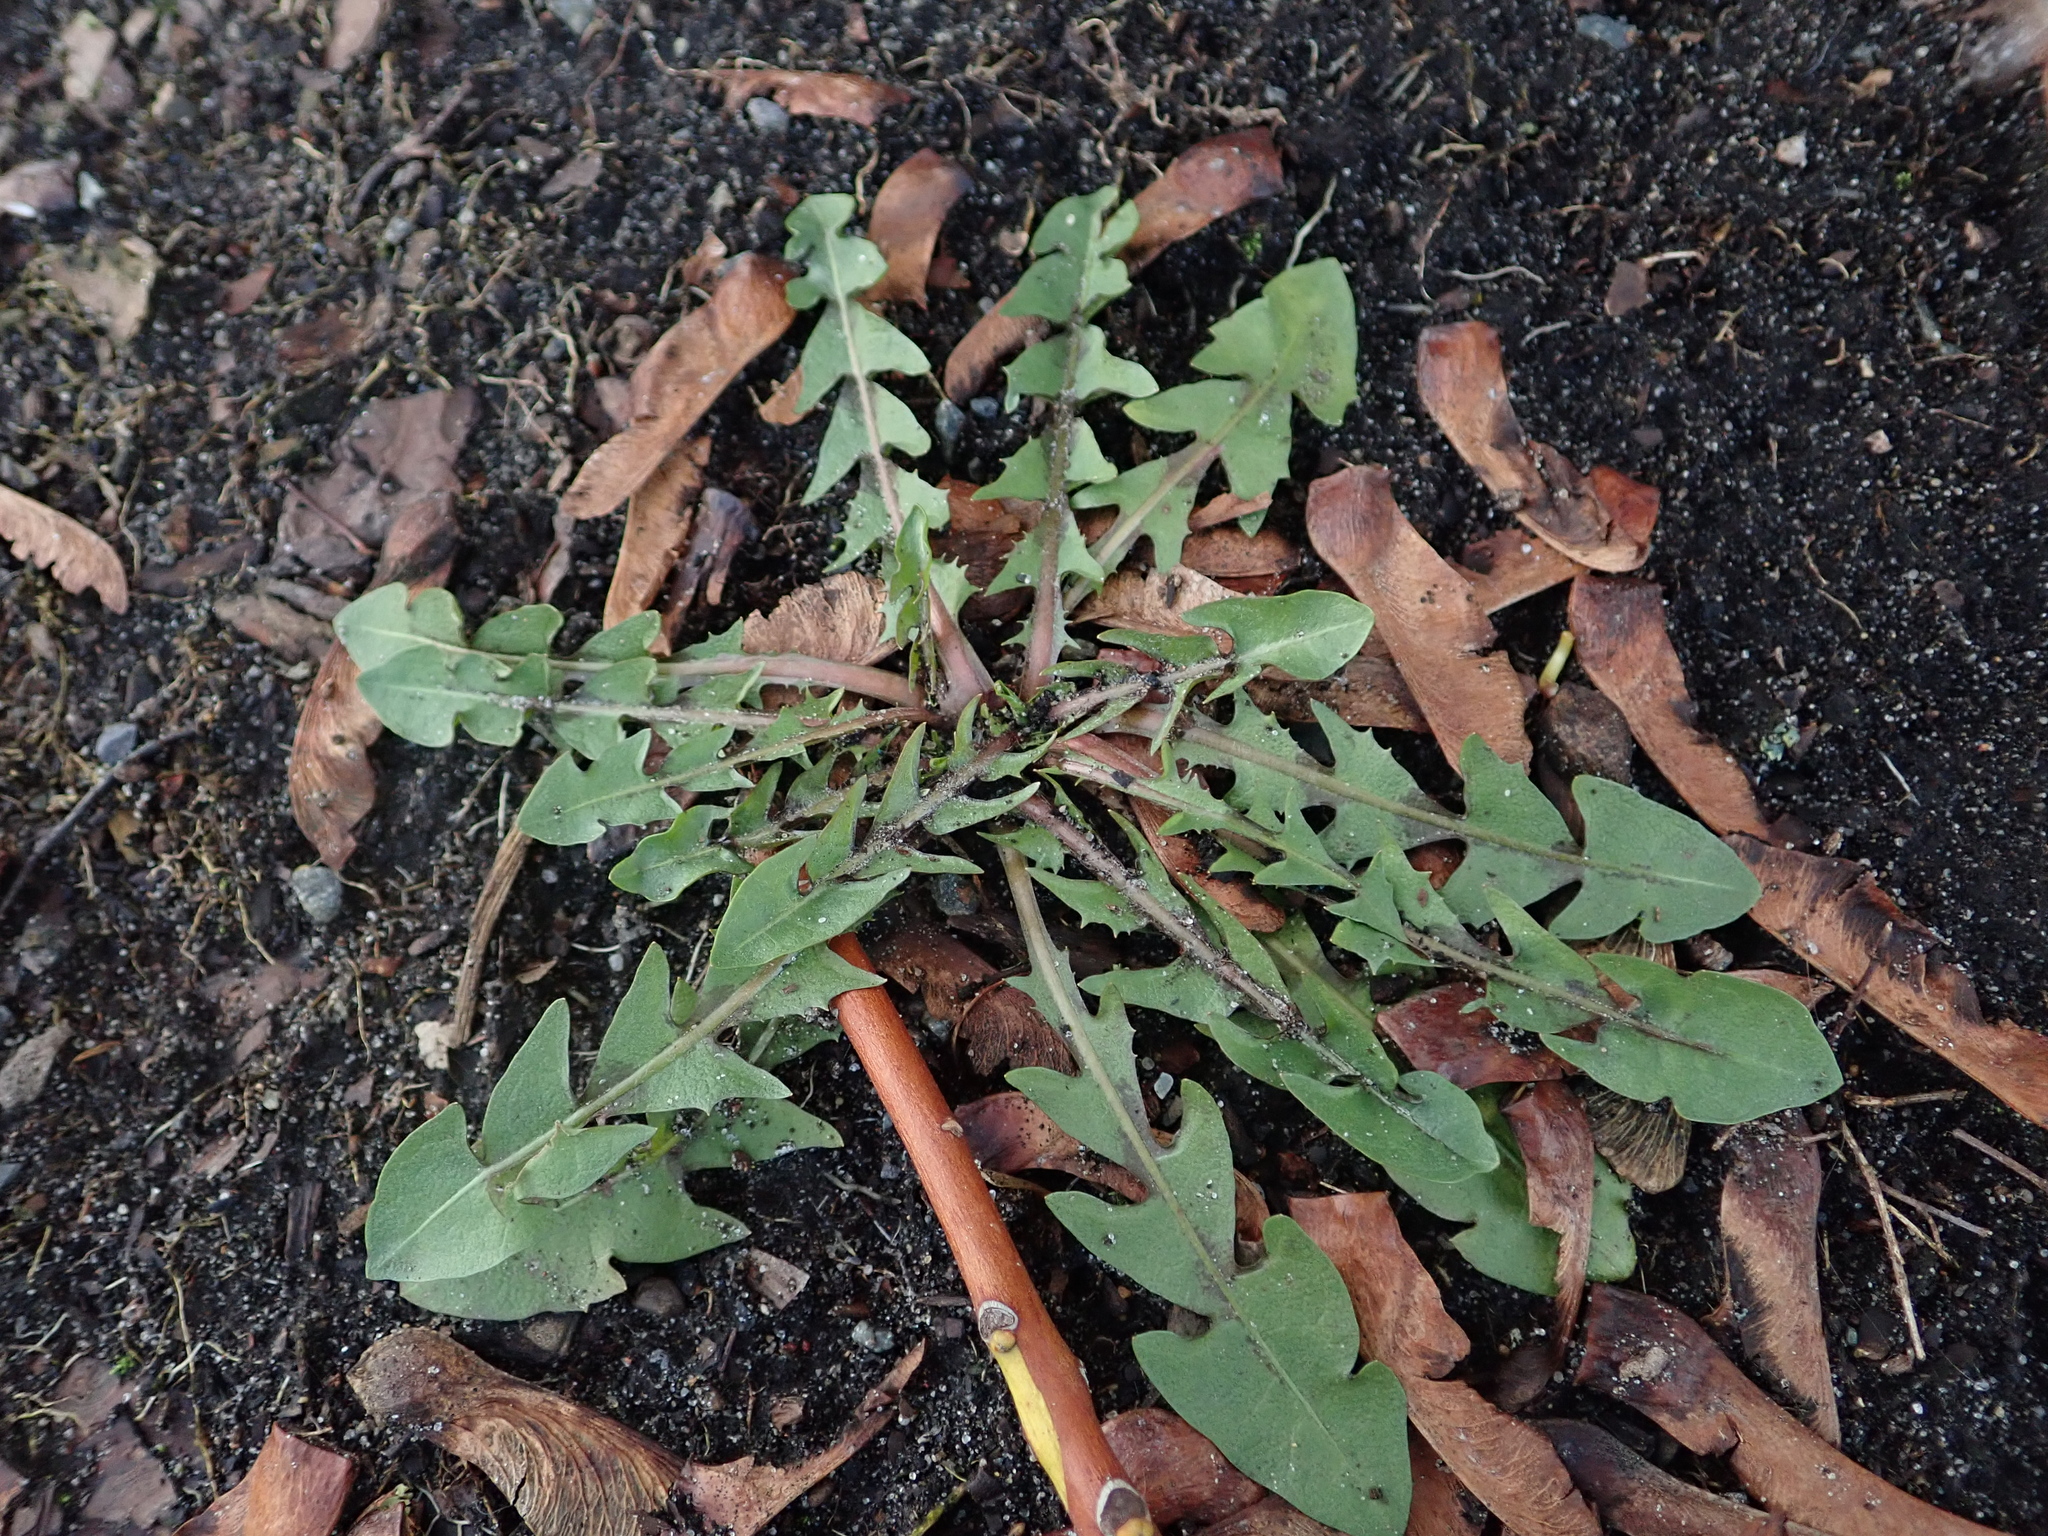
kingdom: Plantae
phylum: Tracheophyta
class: Magnoliopsida
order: Asterales
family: Asteraceae
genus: Taraxacum
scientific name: Taraxacum officinale
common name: Common dandelion
